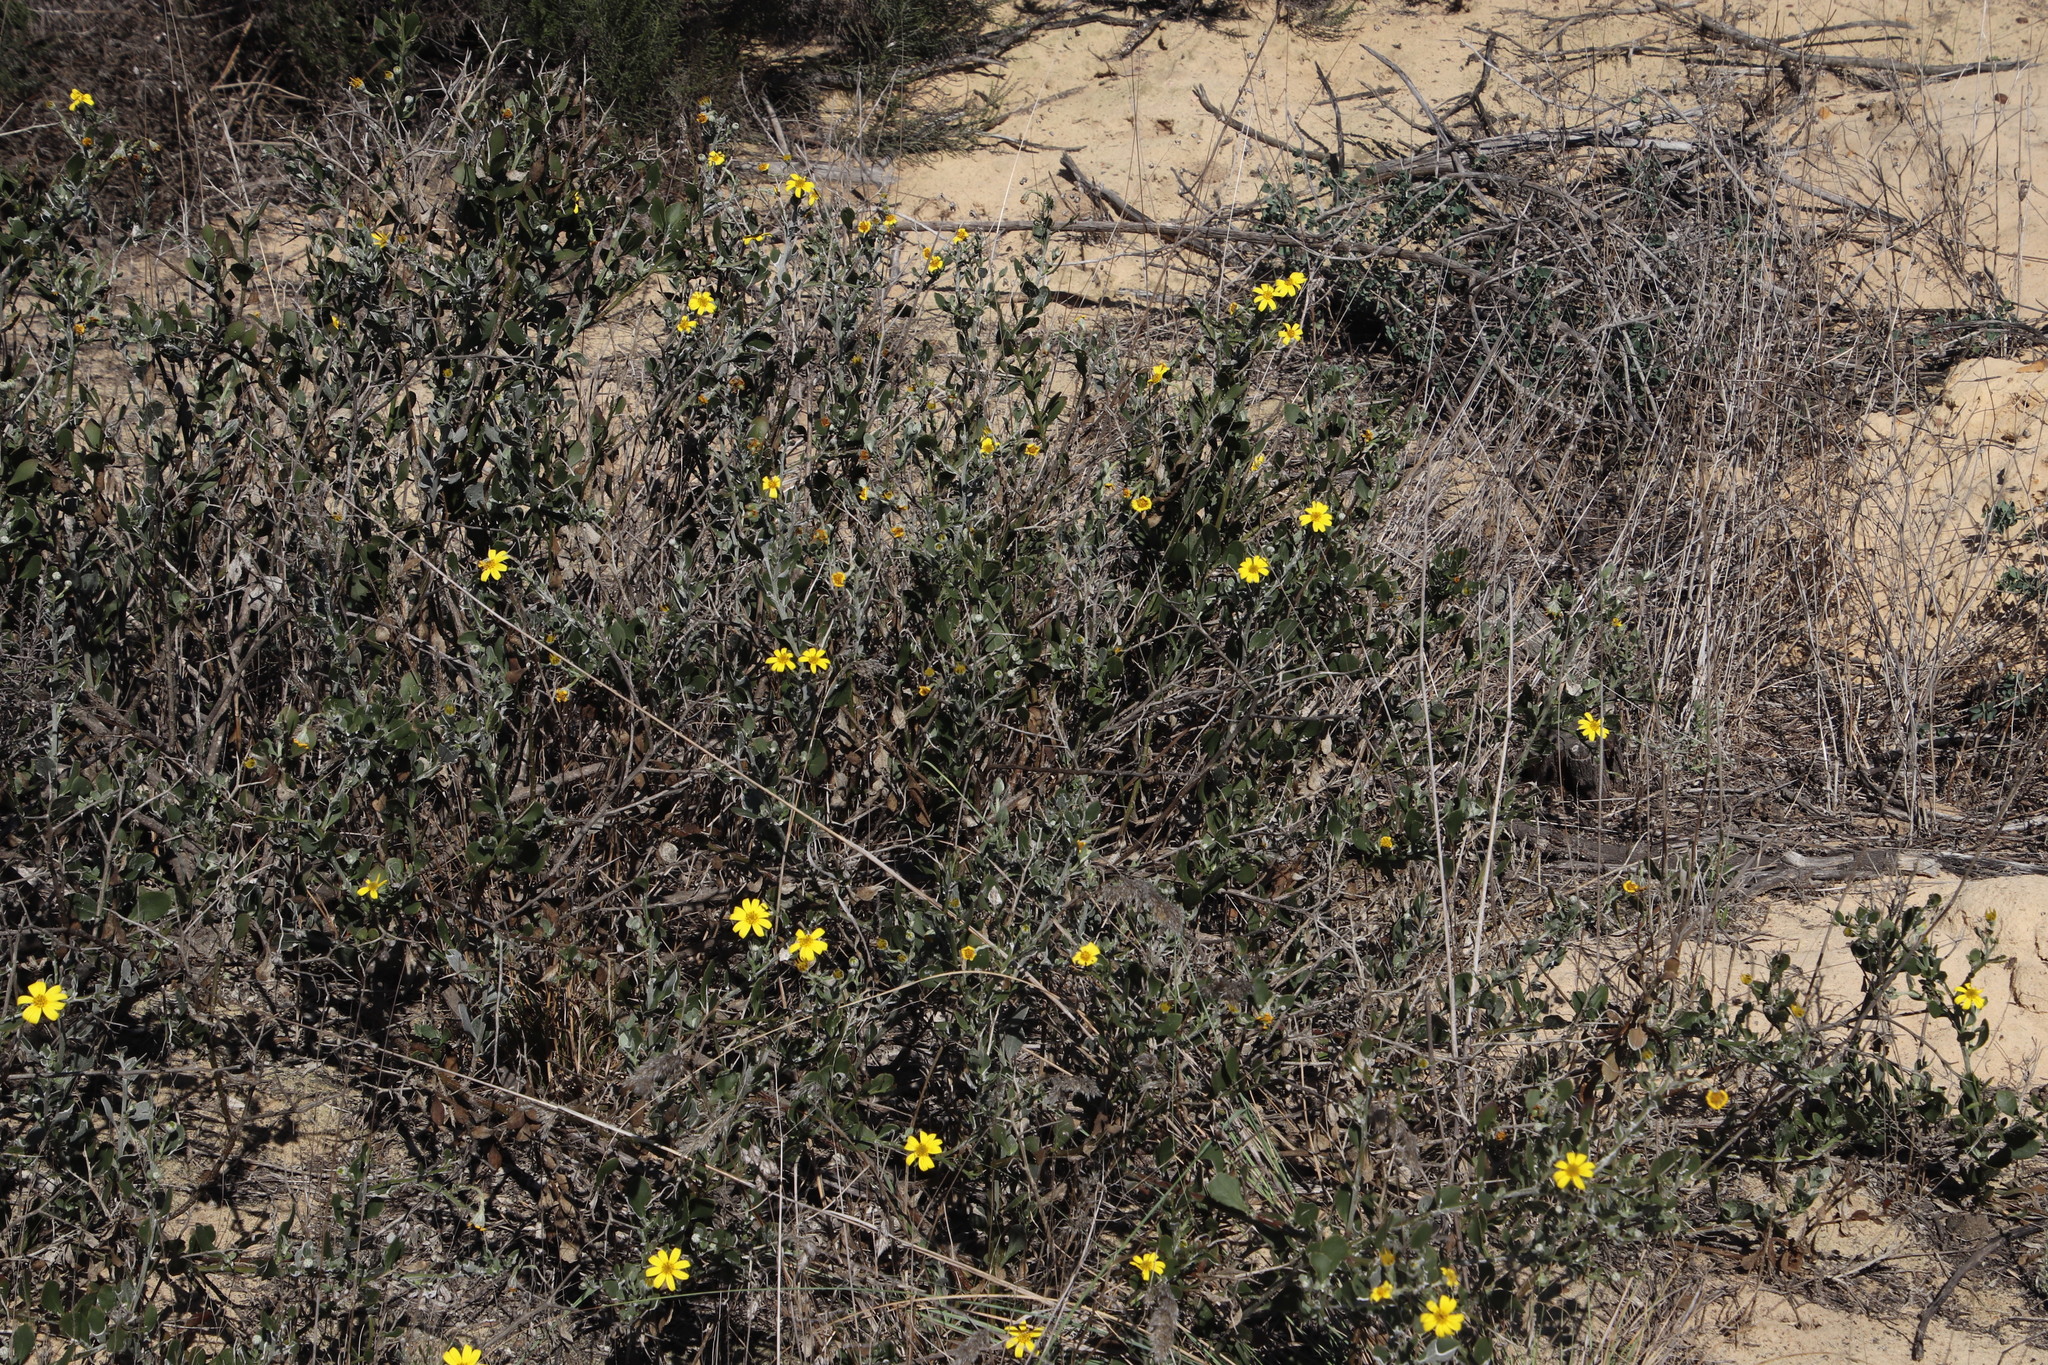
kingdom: Plantae
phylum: Tracheophyta
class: Magnoliopsida
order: Asterales
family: Asteraceae
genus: Osteospermum
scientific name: Osteospermum incanum
